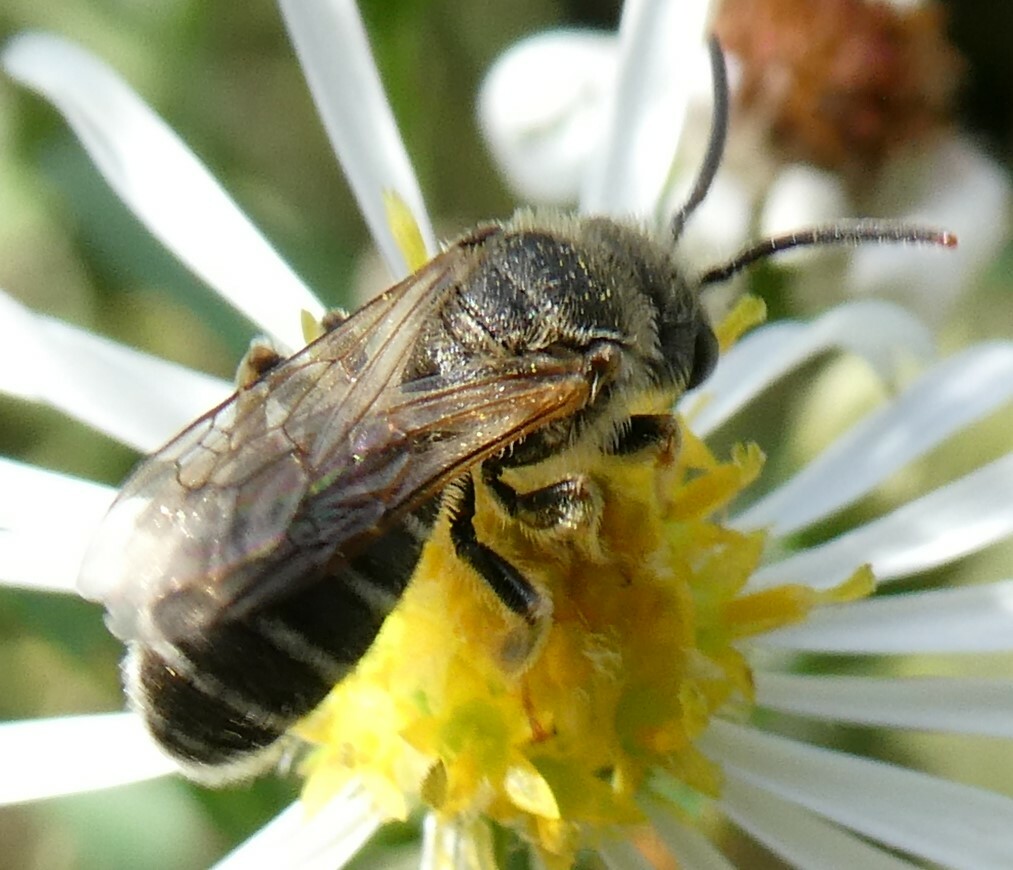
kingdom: Animalia
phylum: Arthropoda
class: Insecta
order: Hymenoptera
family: Halictidae
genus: Halictus
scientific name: Halictus ligatus
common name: Ligated furrow bee
